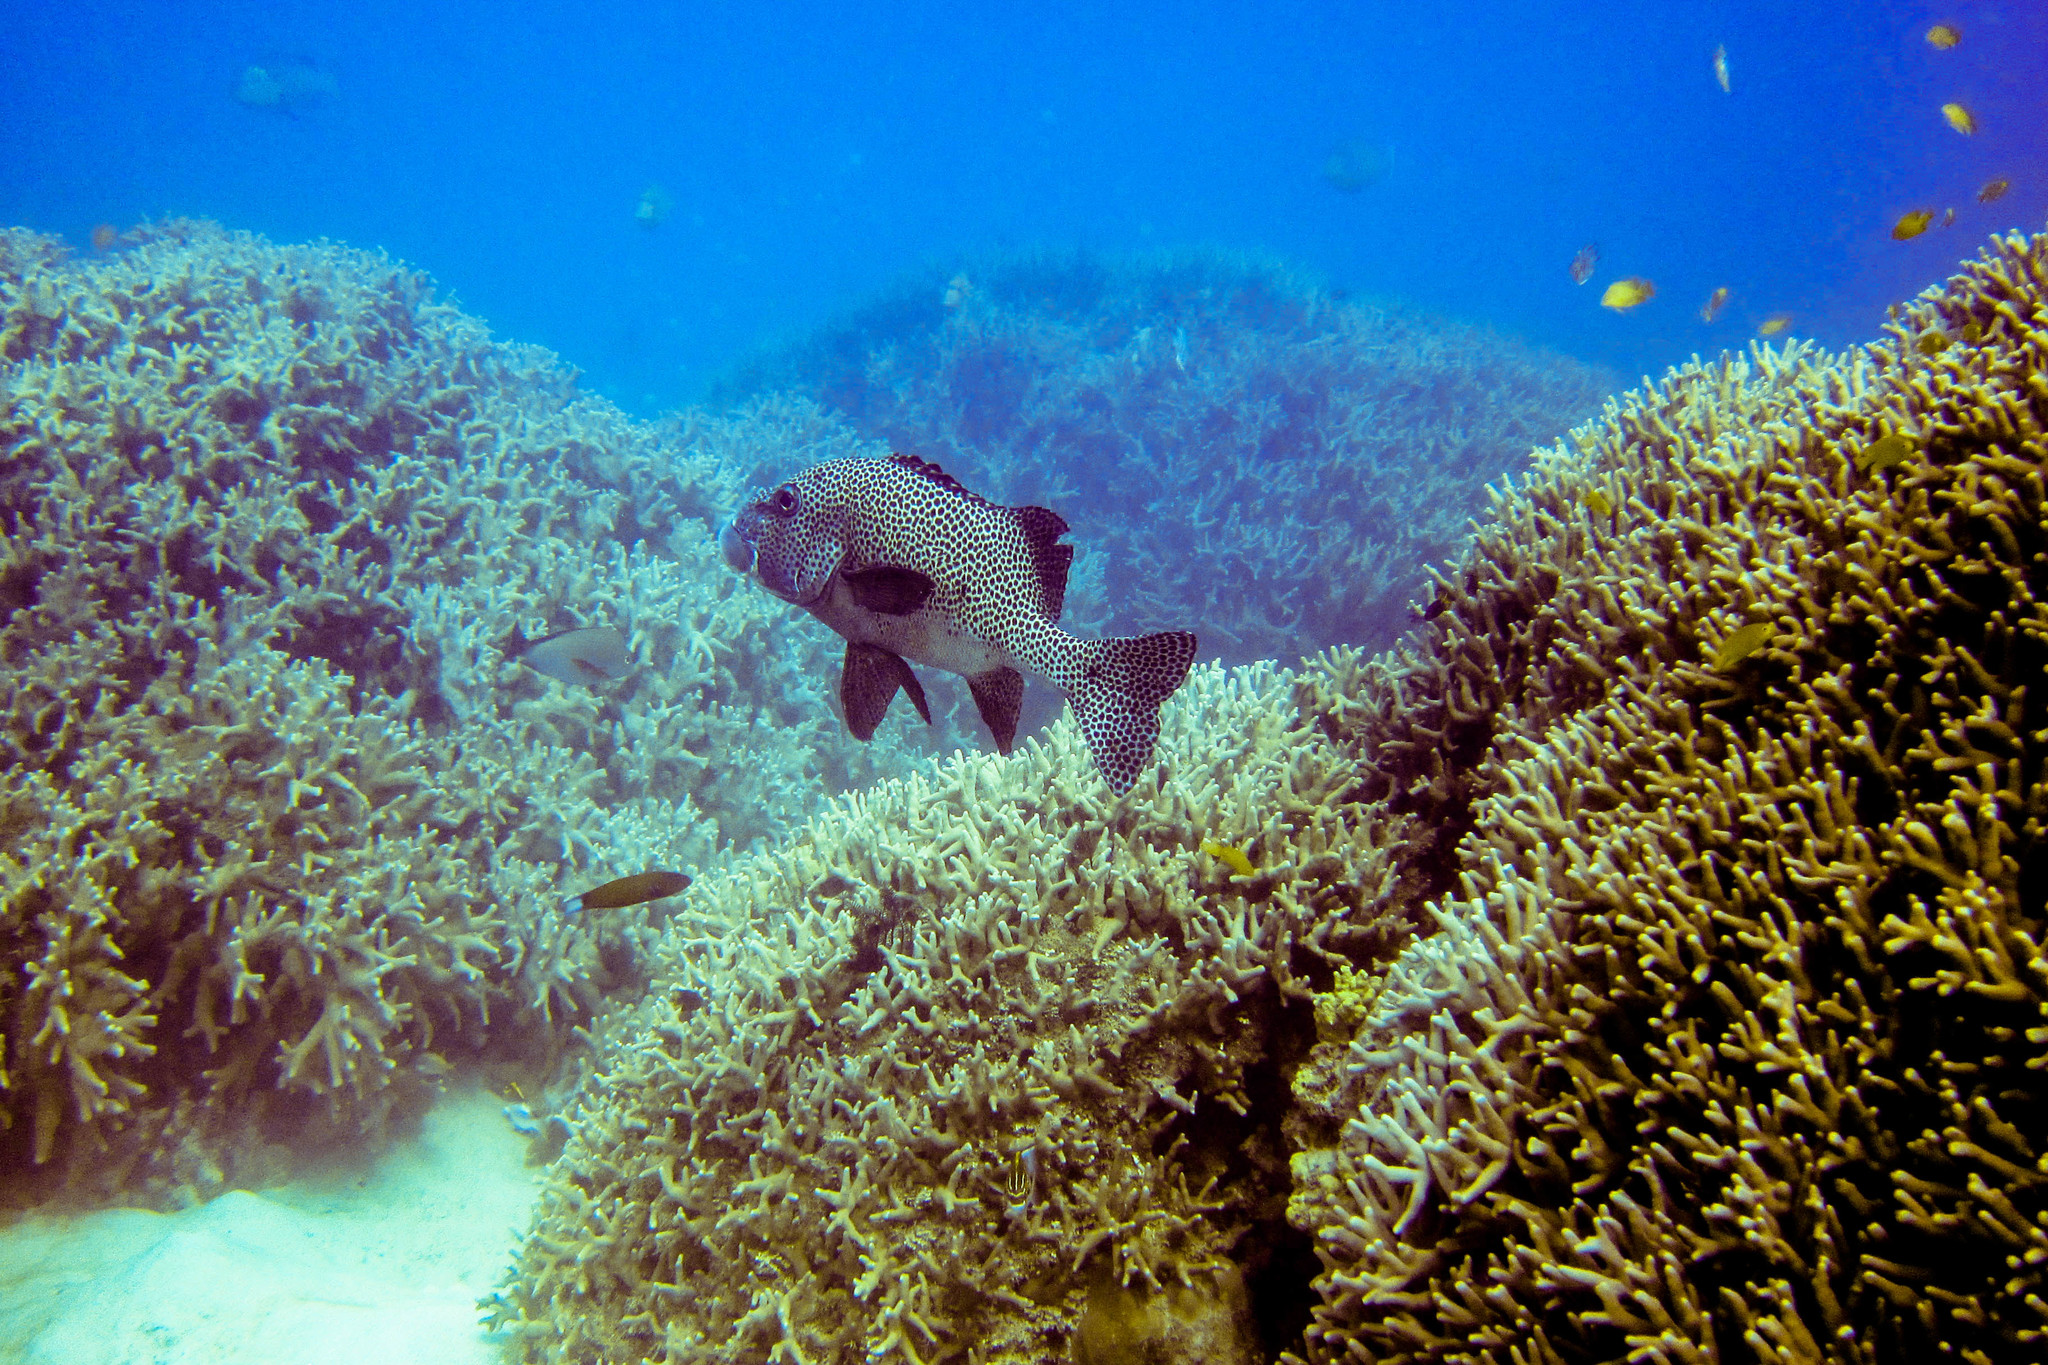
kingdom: Animalia
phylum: Chordata
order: Perciformes
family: Haemulidae
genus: Plectorhinchus
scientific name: Plectorhinchus chaetodonoides
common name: Harlequin sweetlips
